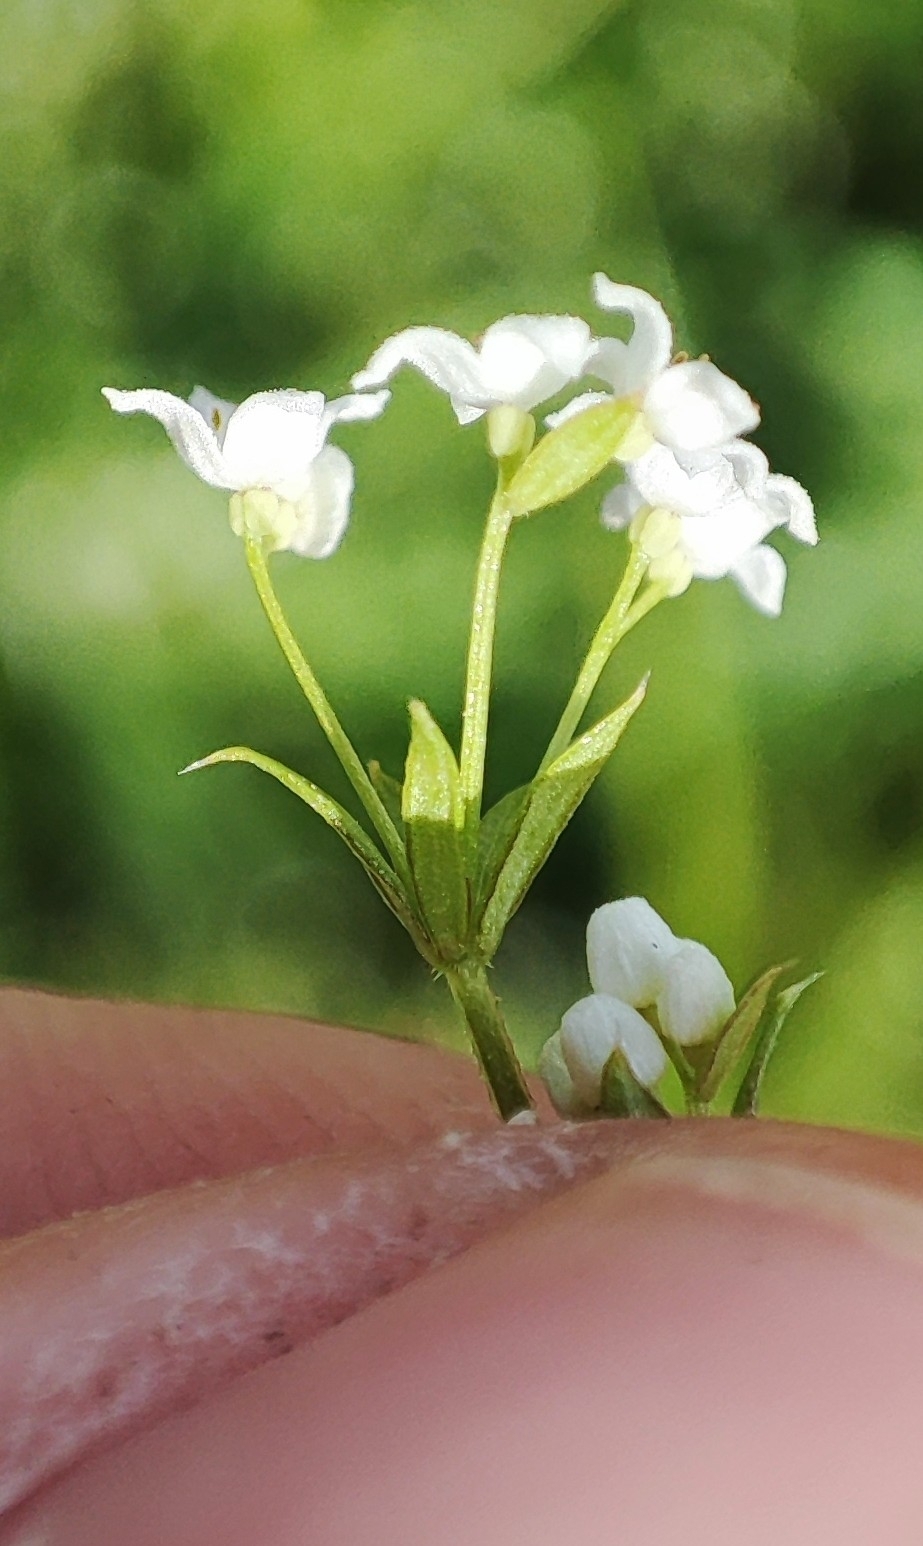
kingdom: Plantae
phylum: Tracheophyta
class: Magnoliopsida
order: Gentianales
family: Rubiaceae
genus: Galium
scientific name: Galium uliginosum
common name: Fen bedstraw
